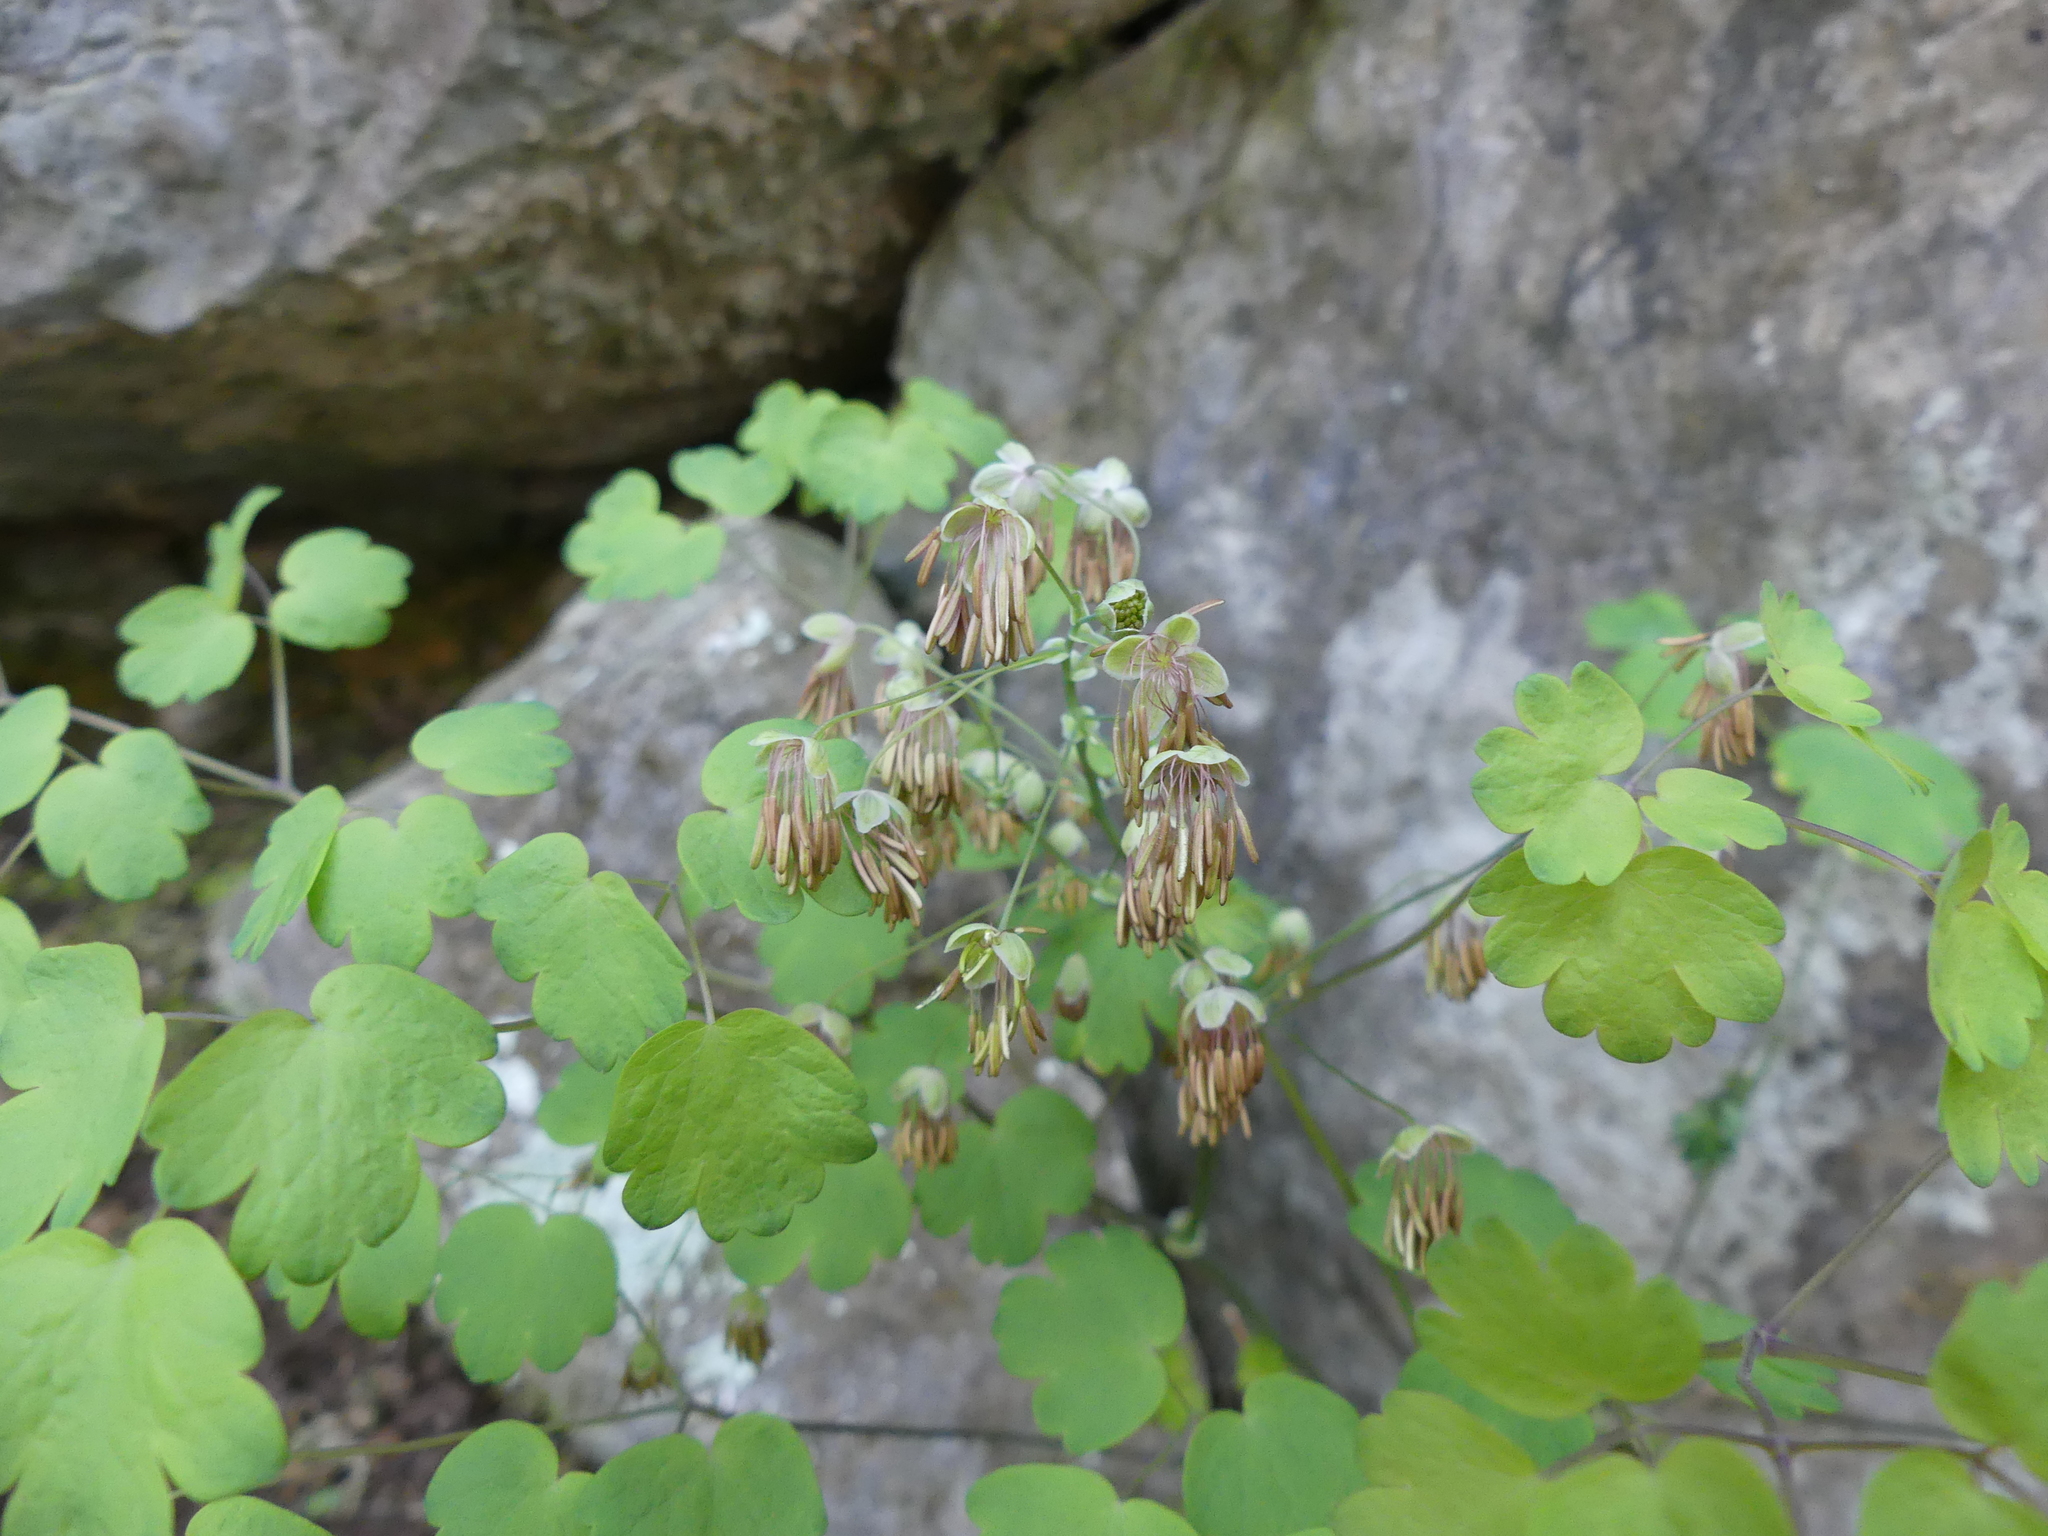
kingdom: Plantae
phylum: Tracheophyta
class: Magnoliopsida
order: Ranunculales
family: Ranunculaceae
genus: Thalictrum
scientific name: Thalictrum dioicum
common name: Early meadow-rue
